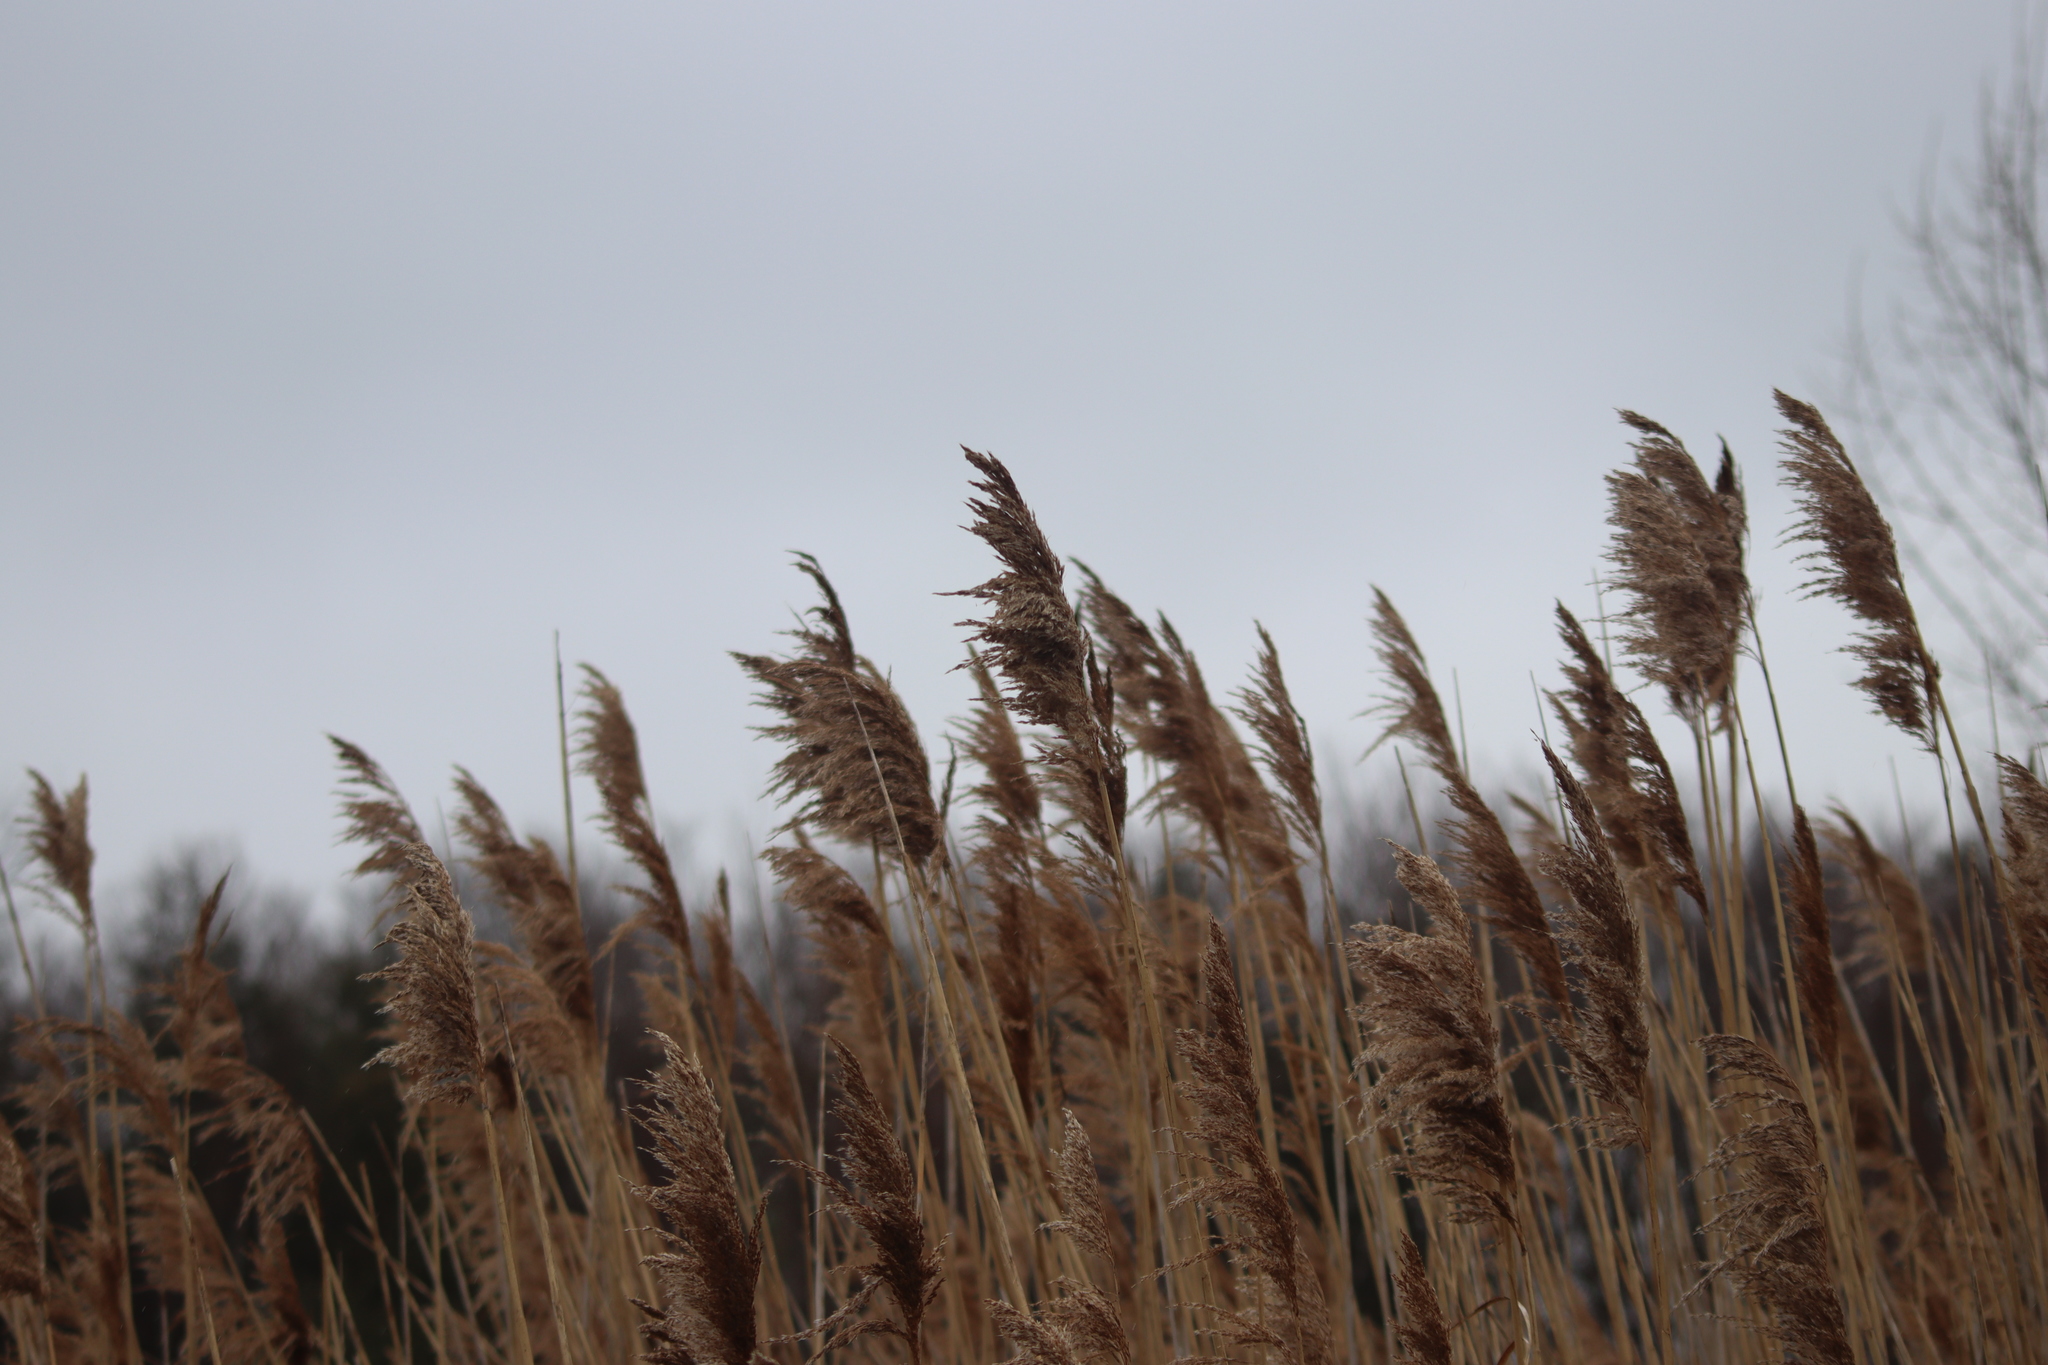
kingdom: Plantae
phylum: Tracheophyta
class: Liliopsida
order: Poales
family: Poaceae
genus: Phragmites
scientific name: Phragmites australis
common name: Common reed
